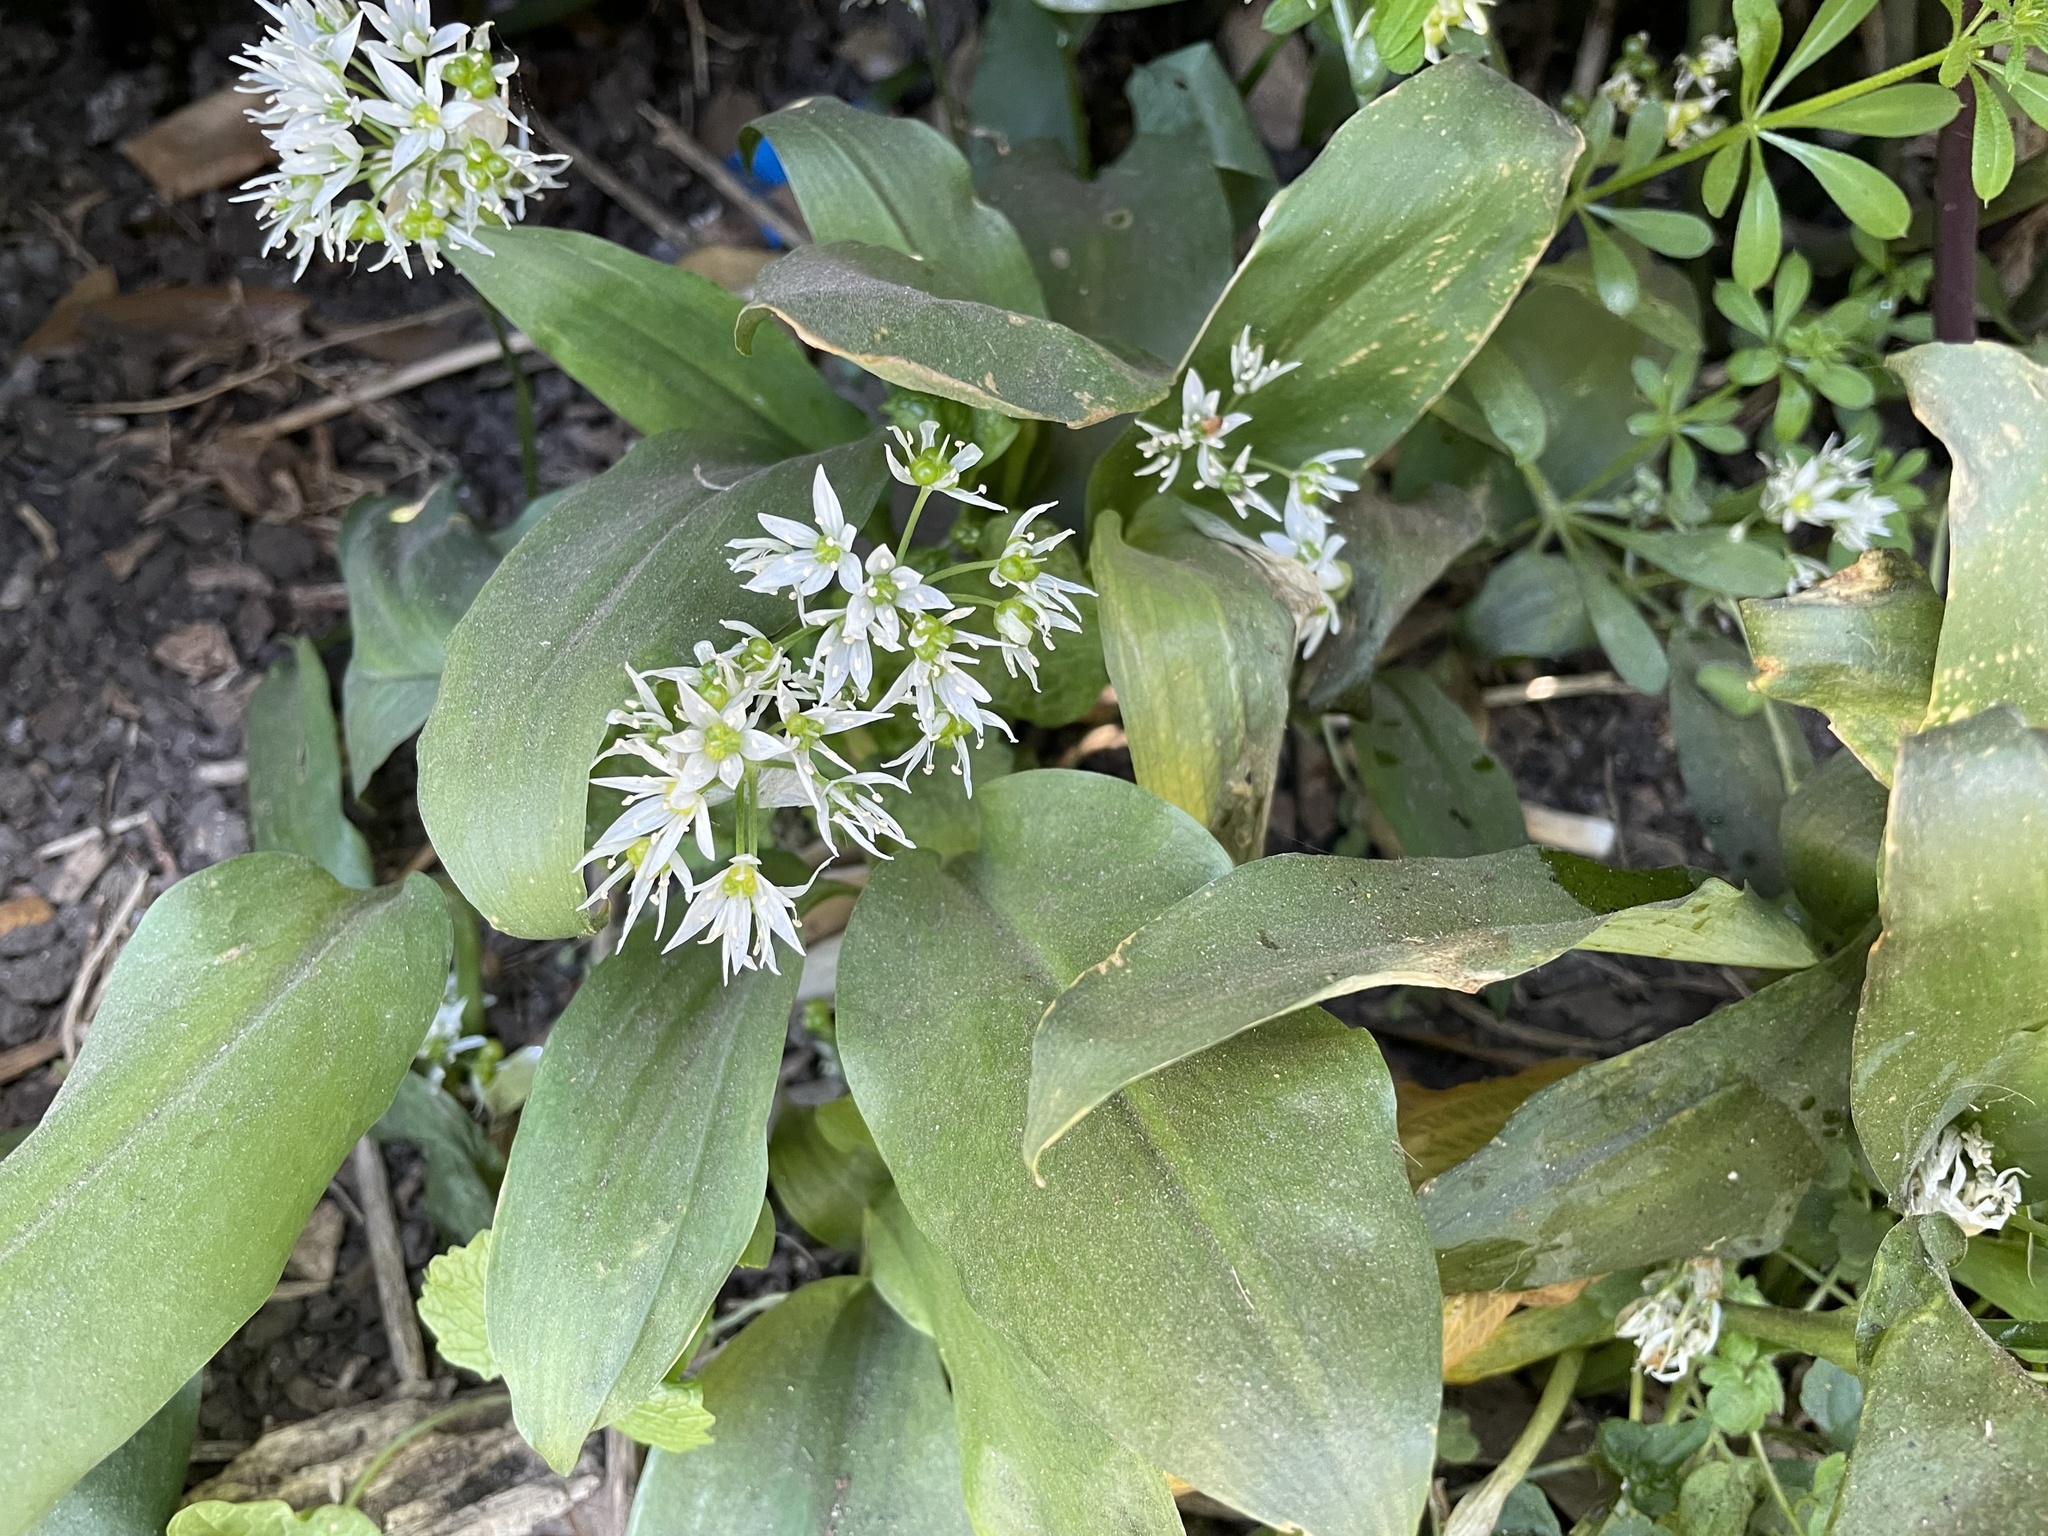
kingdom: Plantae
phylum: Tracheophyta
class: Liliopsida
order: Asparagales
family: Amaryllidaceae
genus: Allium
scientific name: Allium ursinum
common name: Ramsons
